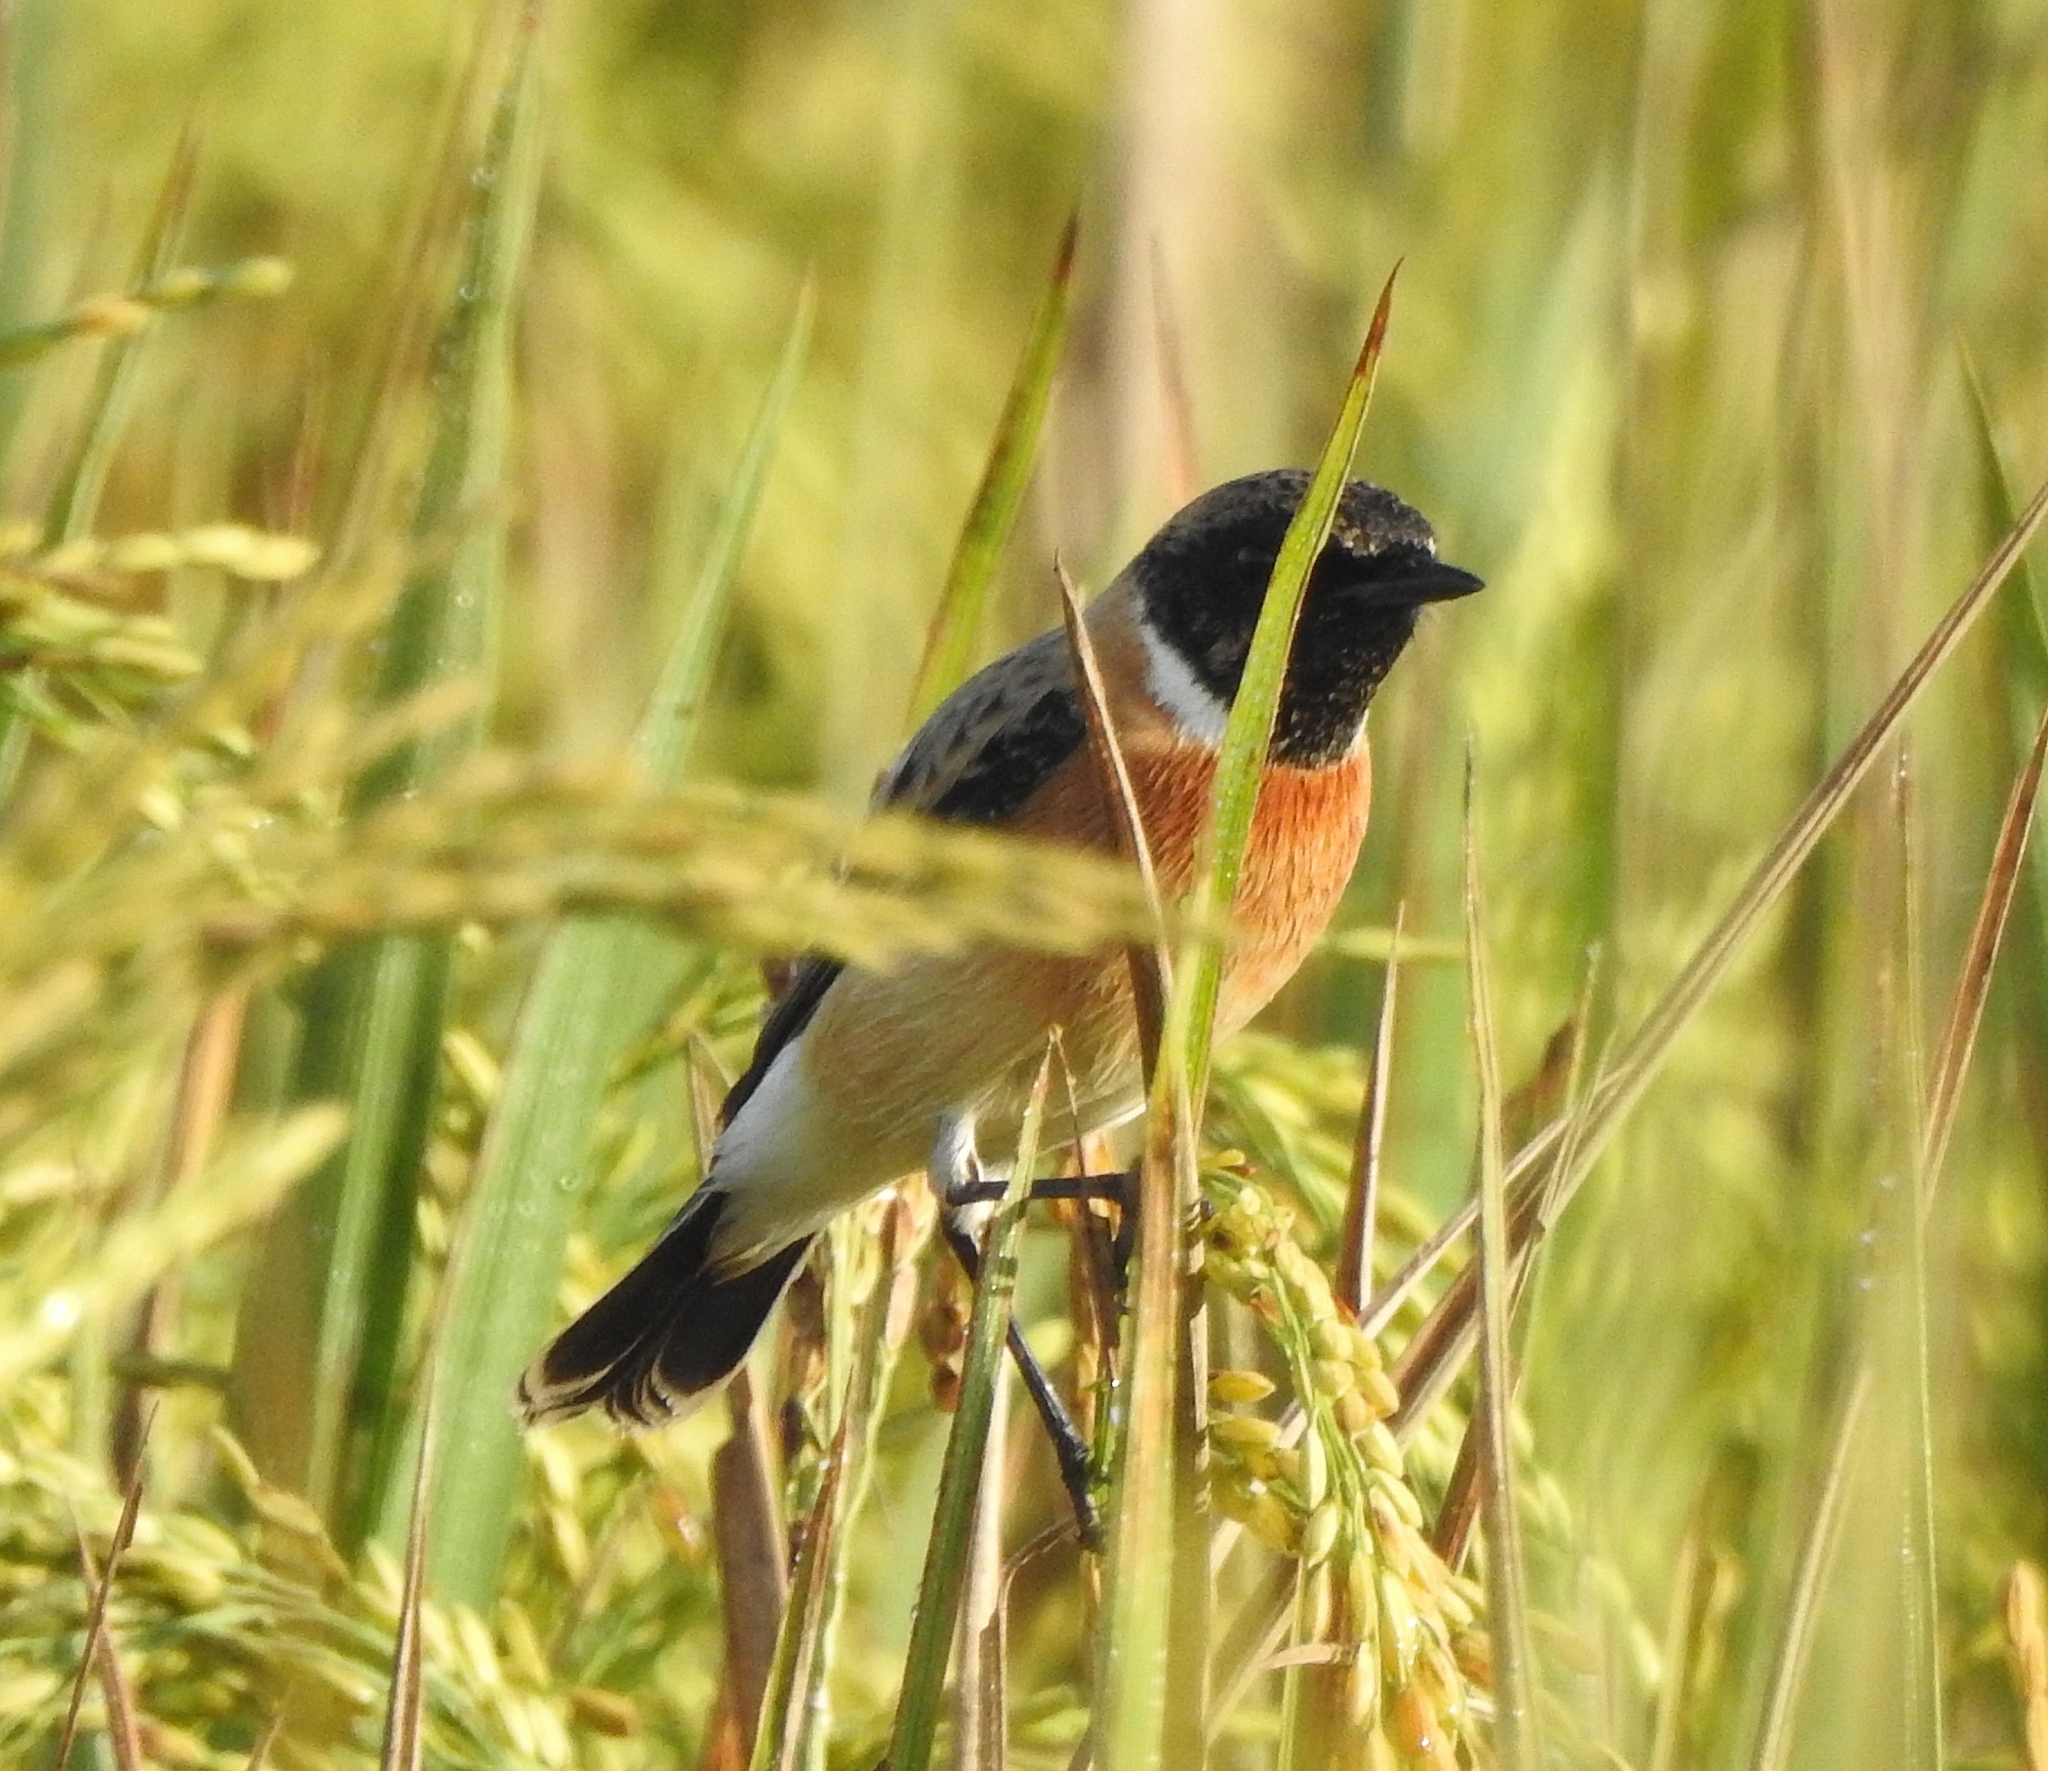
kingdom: Animalia
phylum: Chordata
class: Aves
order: Passeriformes
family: Muscicapidae
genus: Saxicola
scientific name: Saxicola maurus
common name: Siberian stonechat
